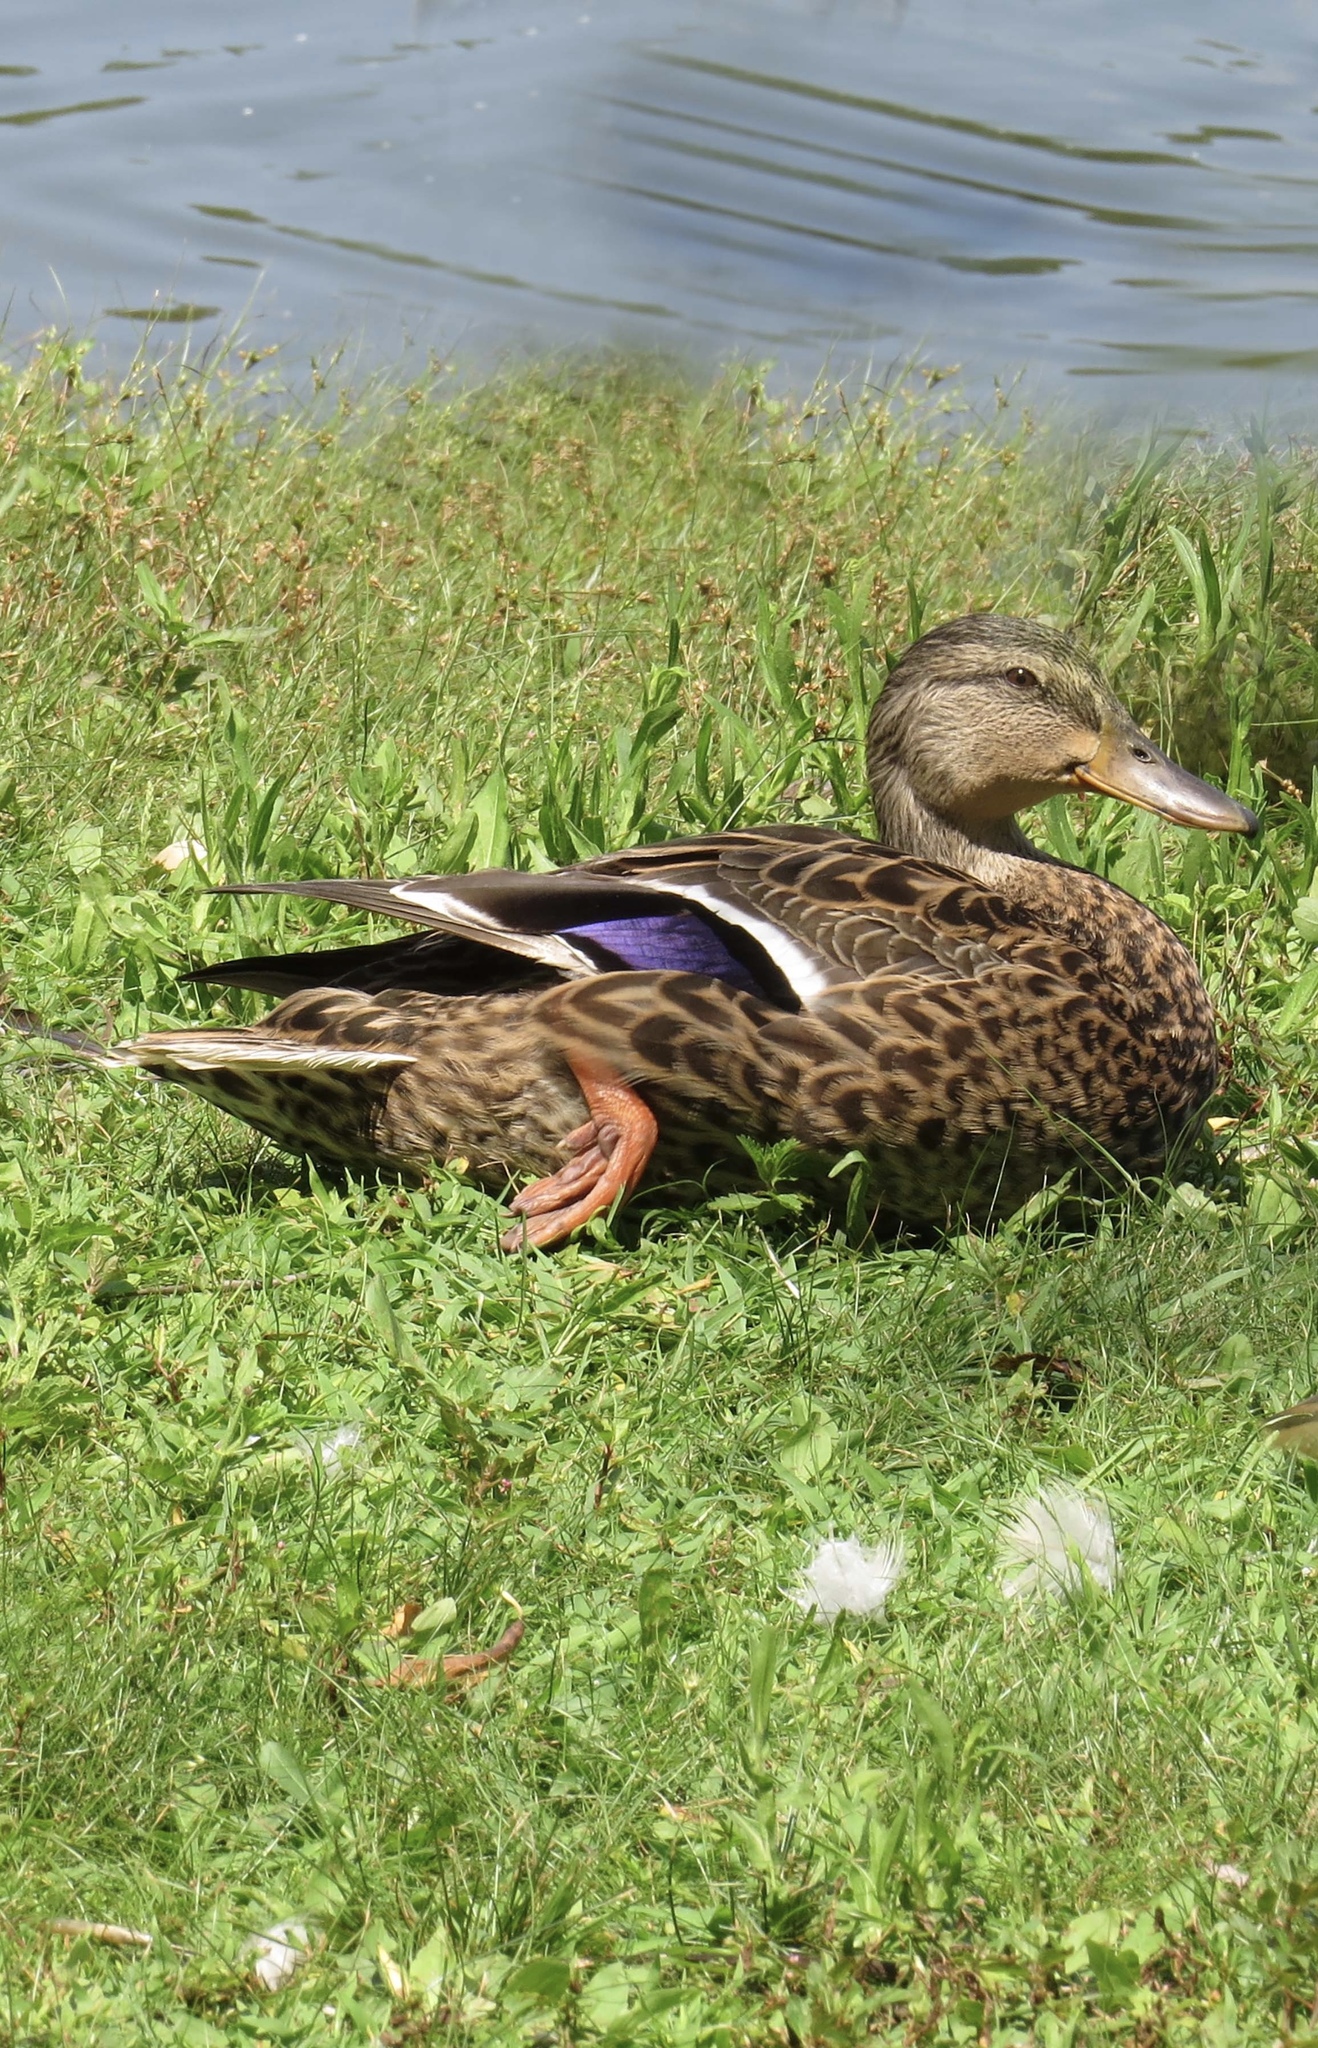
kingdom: Animalia
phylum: Chordata
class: Aves
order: Anseriformes
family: Anatidae
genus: Anas
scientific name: Anas platyrhynchos
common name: Mallard
